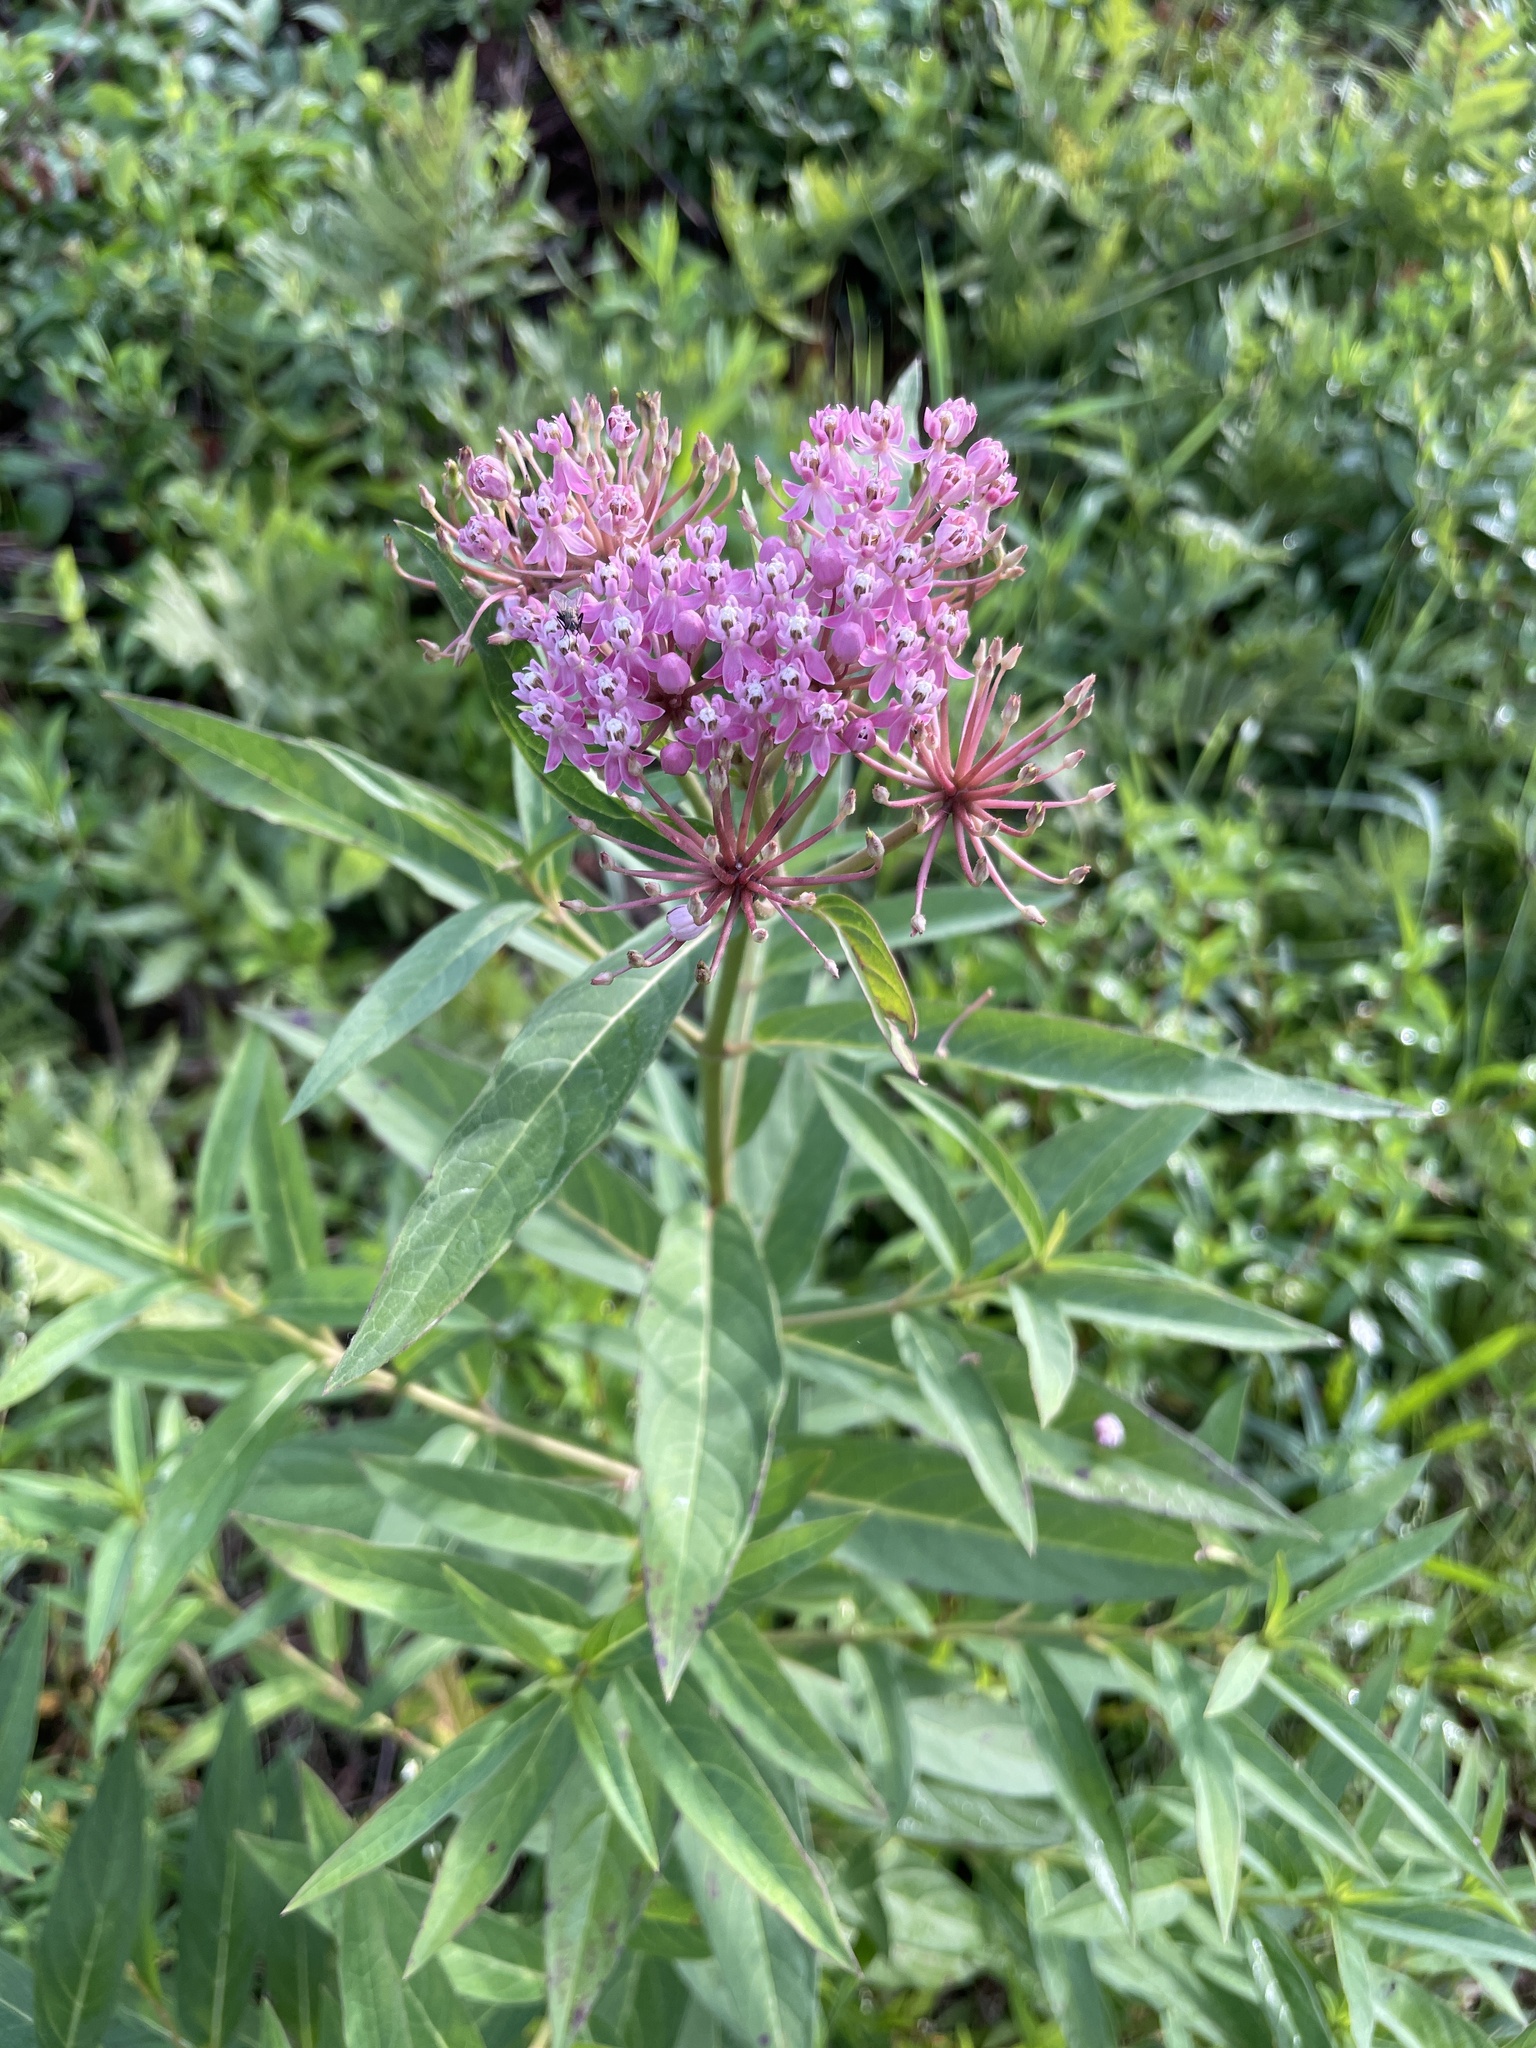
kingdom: Plantae
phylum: Tracheophyta
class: Magnoliopsida
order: Gentianales
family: Apocynaceae
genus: Asclepias
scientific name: Asclepias incarnata
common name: Swamp milkweed
